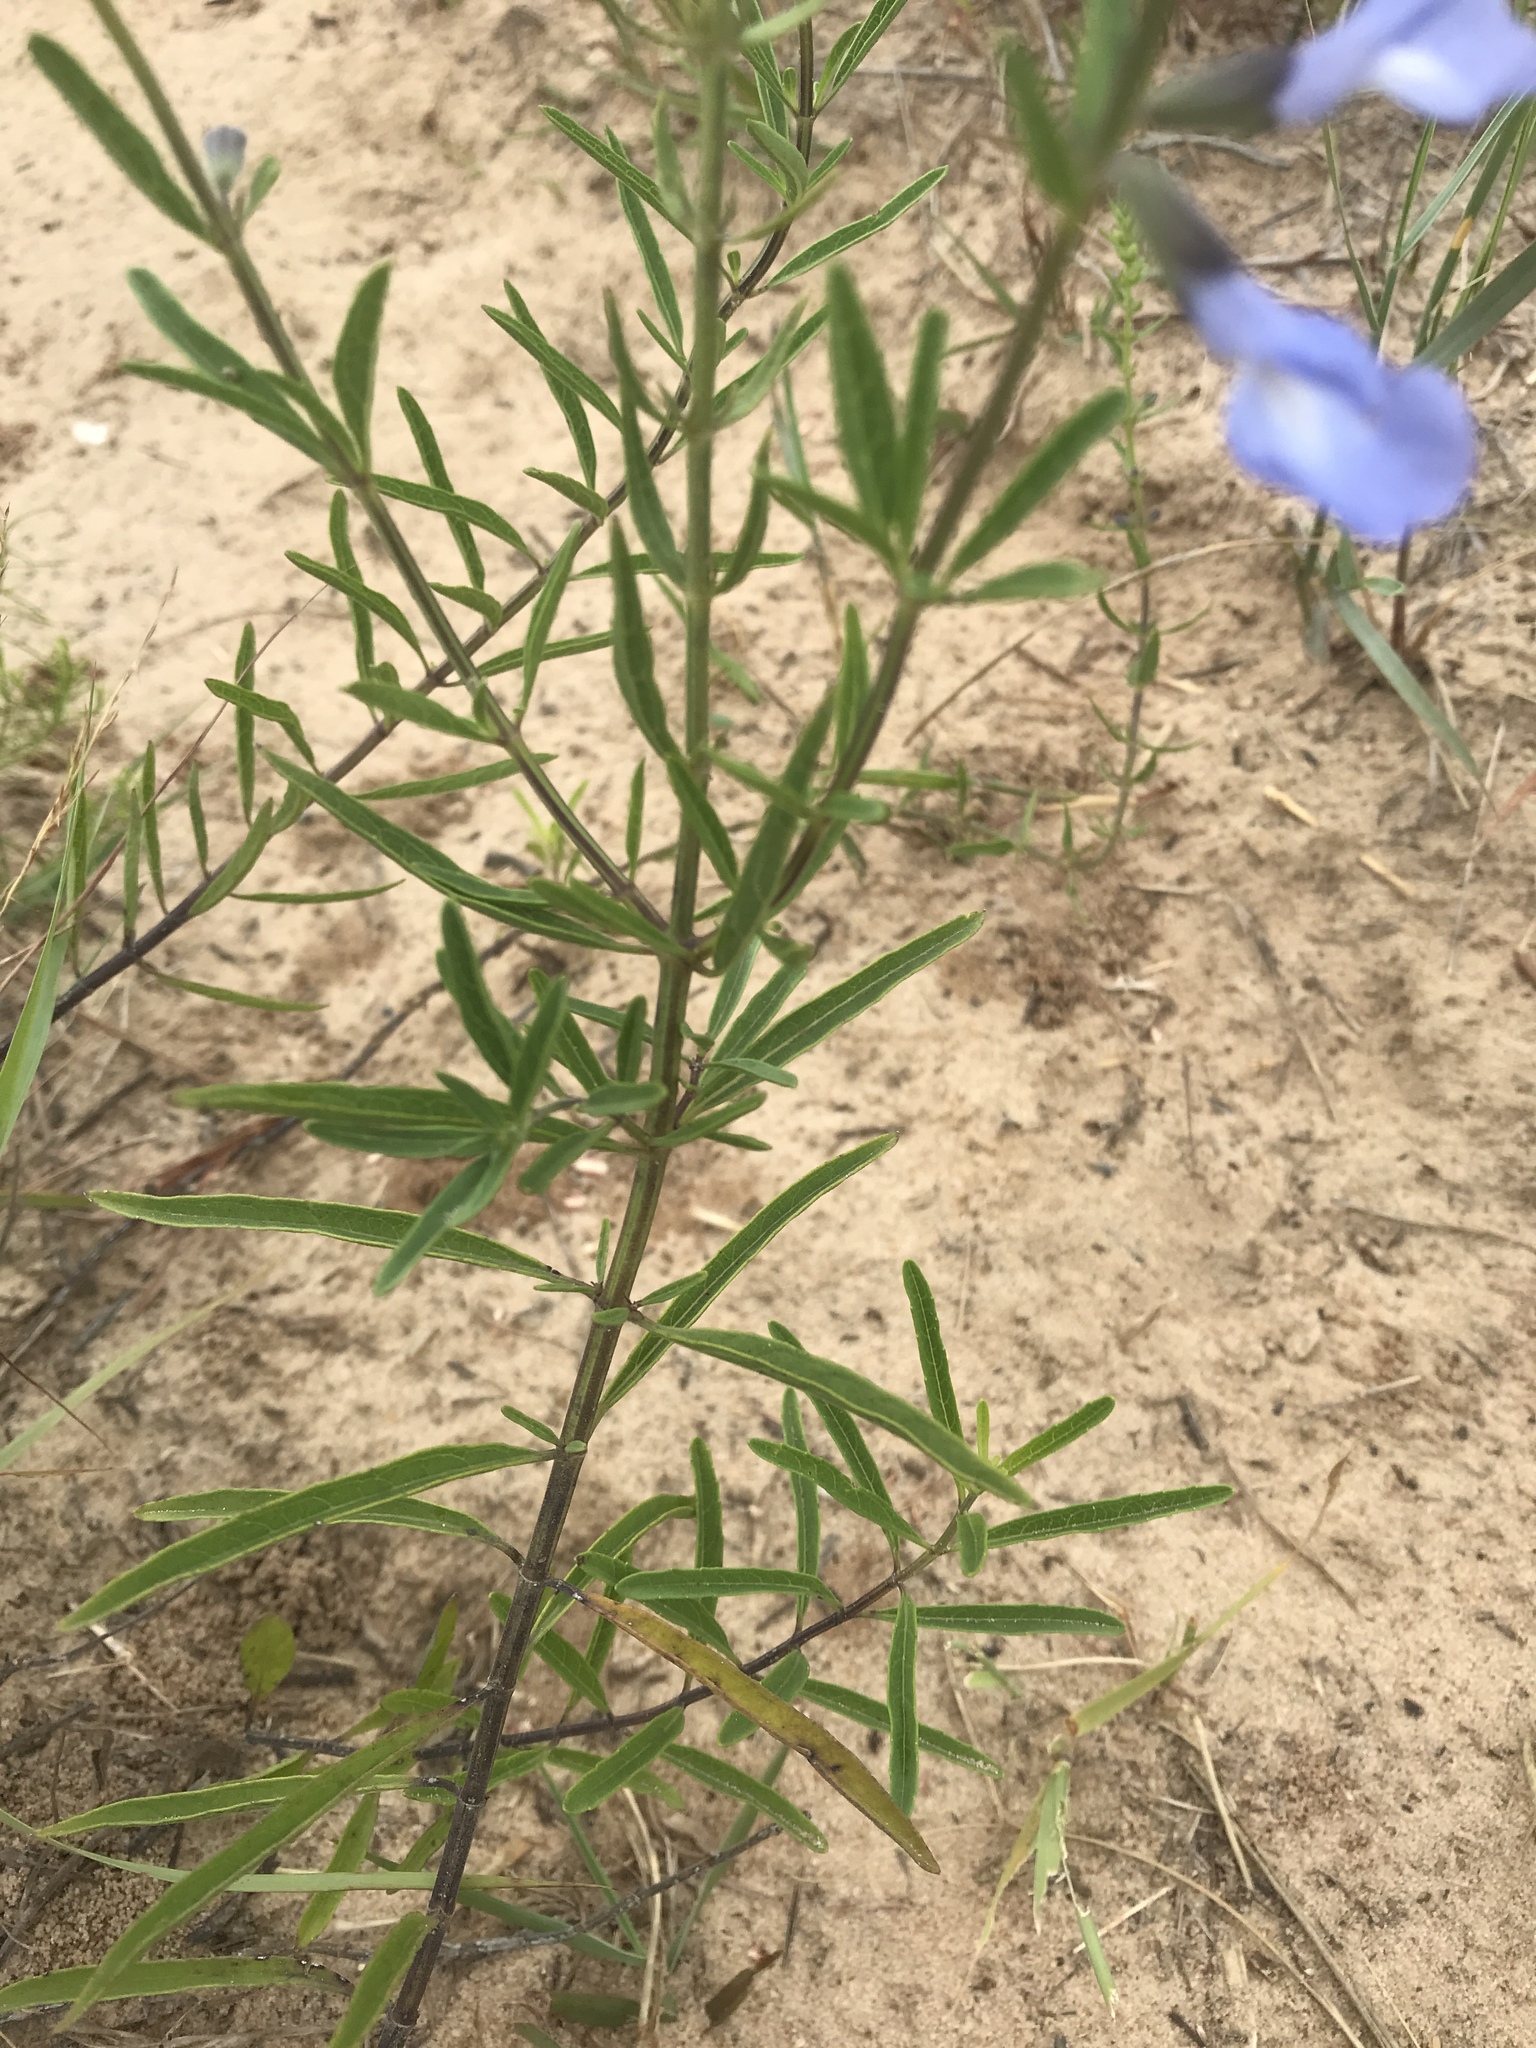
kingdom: Plantae
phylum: Tracheophyta
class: Magnoliopsida
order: Lamiales
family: Lamiaceae
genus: Salvia
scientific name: Salvia azurea
